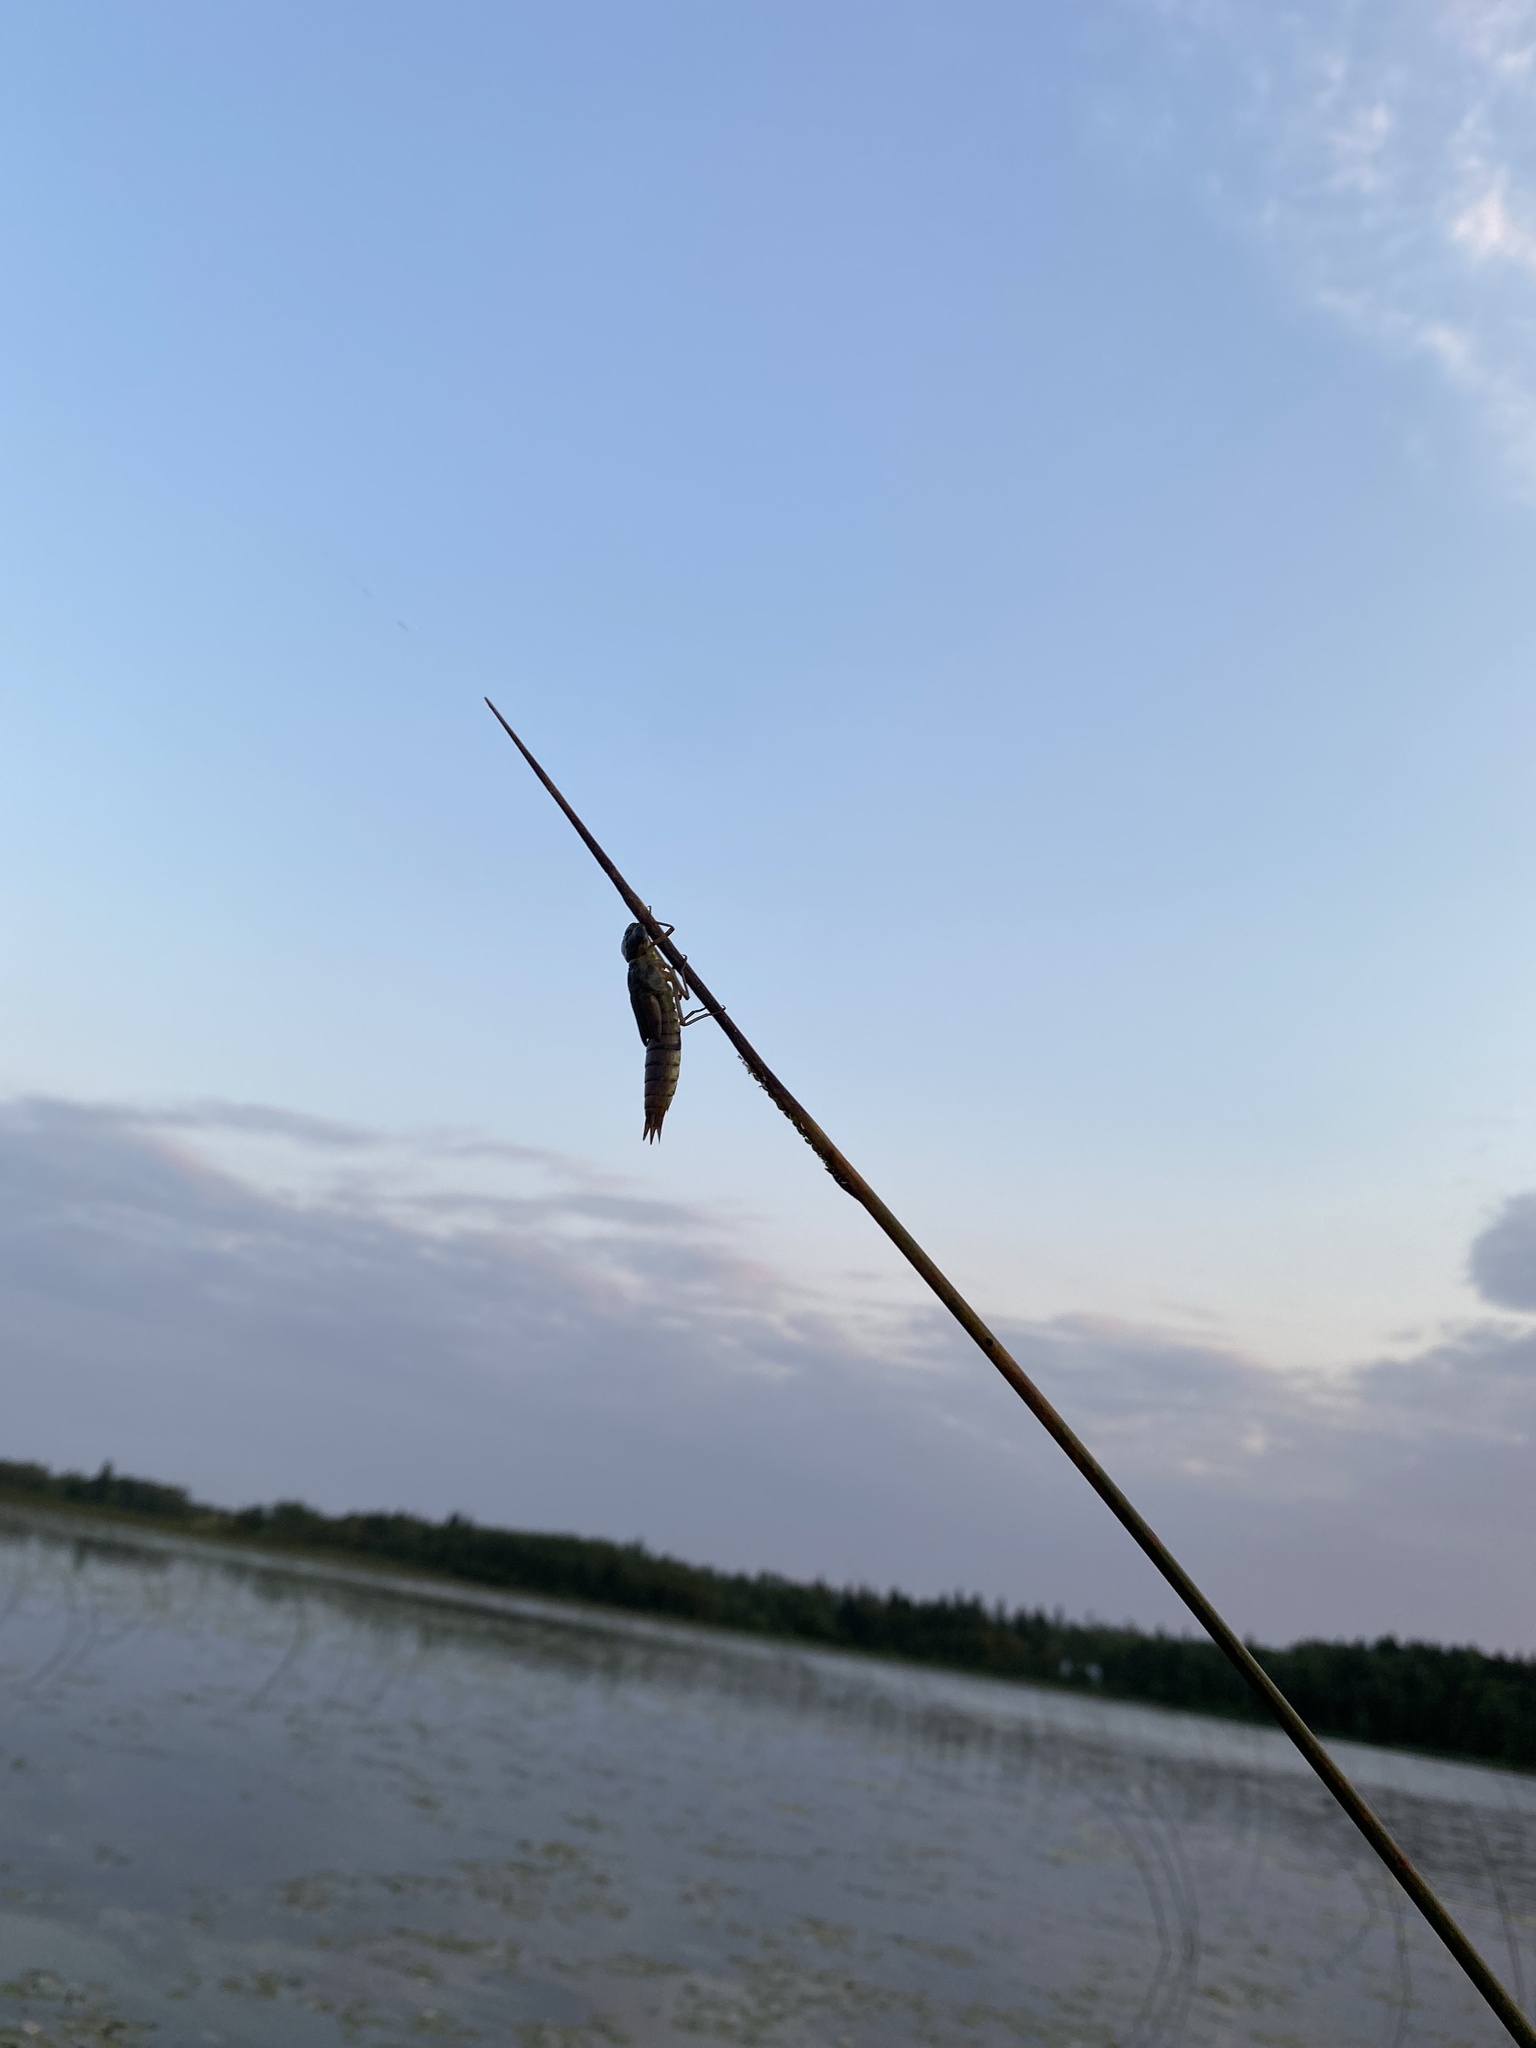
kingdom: Animalia
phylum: Arthropoda
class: Insecta
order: Odonata
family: Aeshnidae
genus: Aeshna
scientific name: Aeshna eremita
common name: Lake darner
